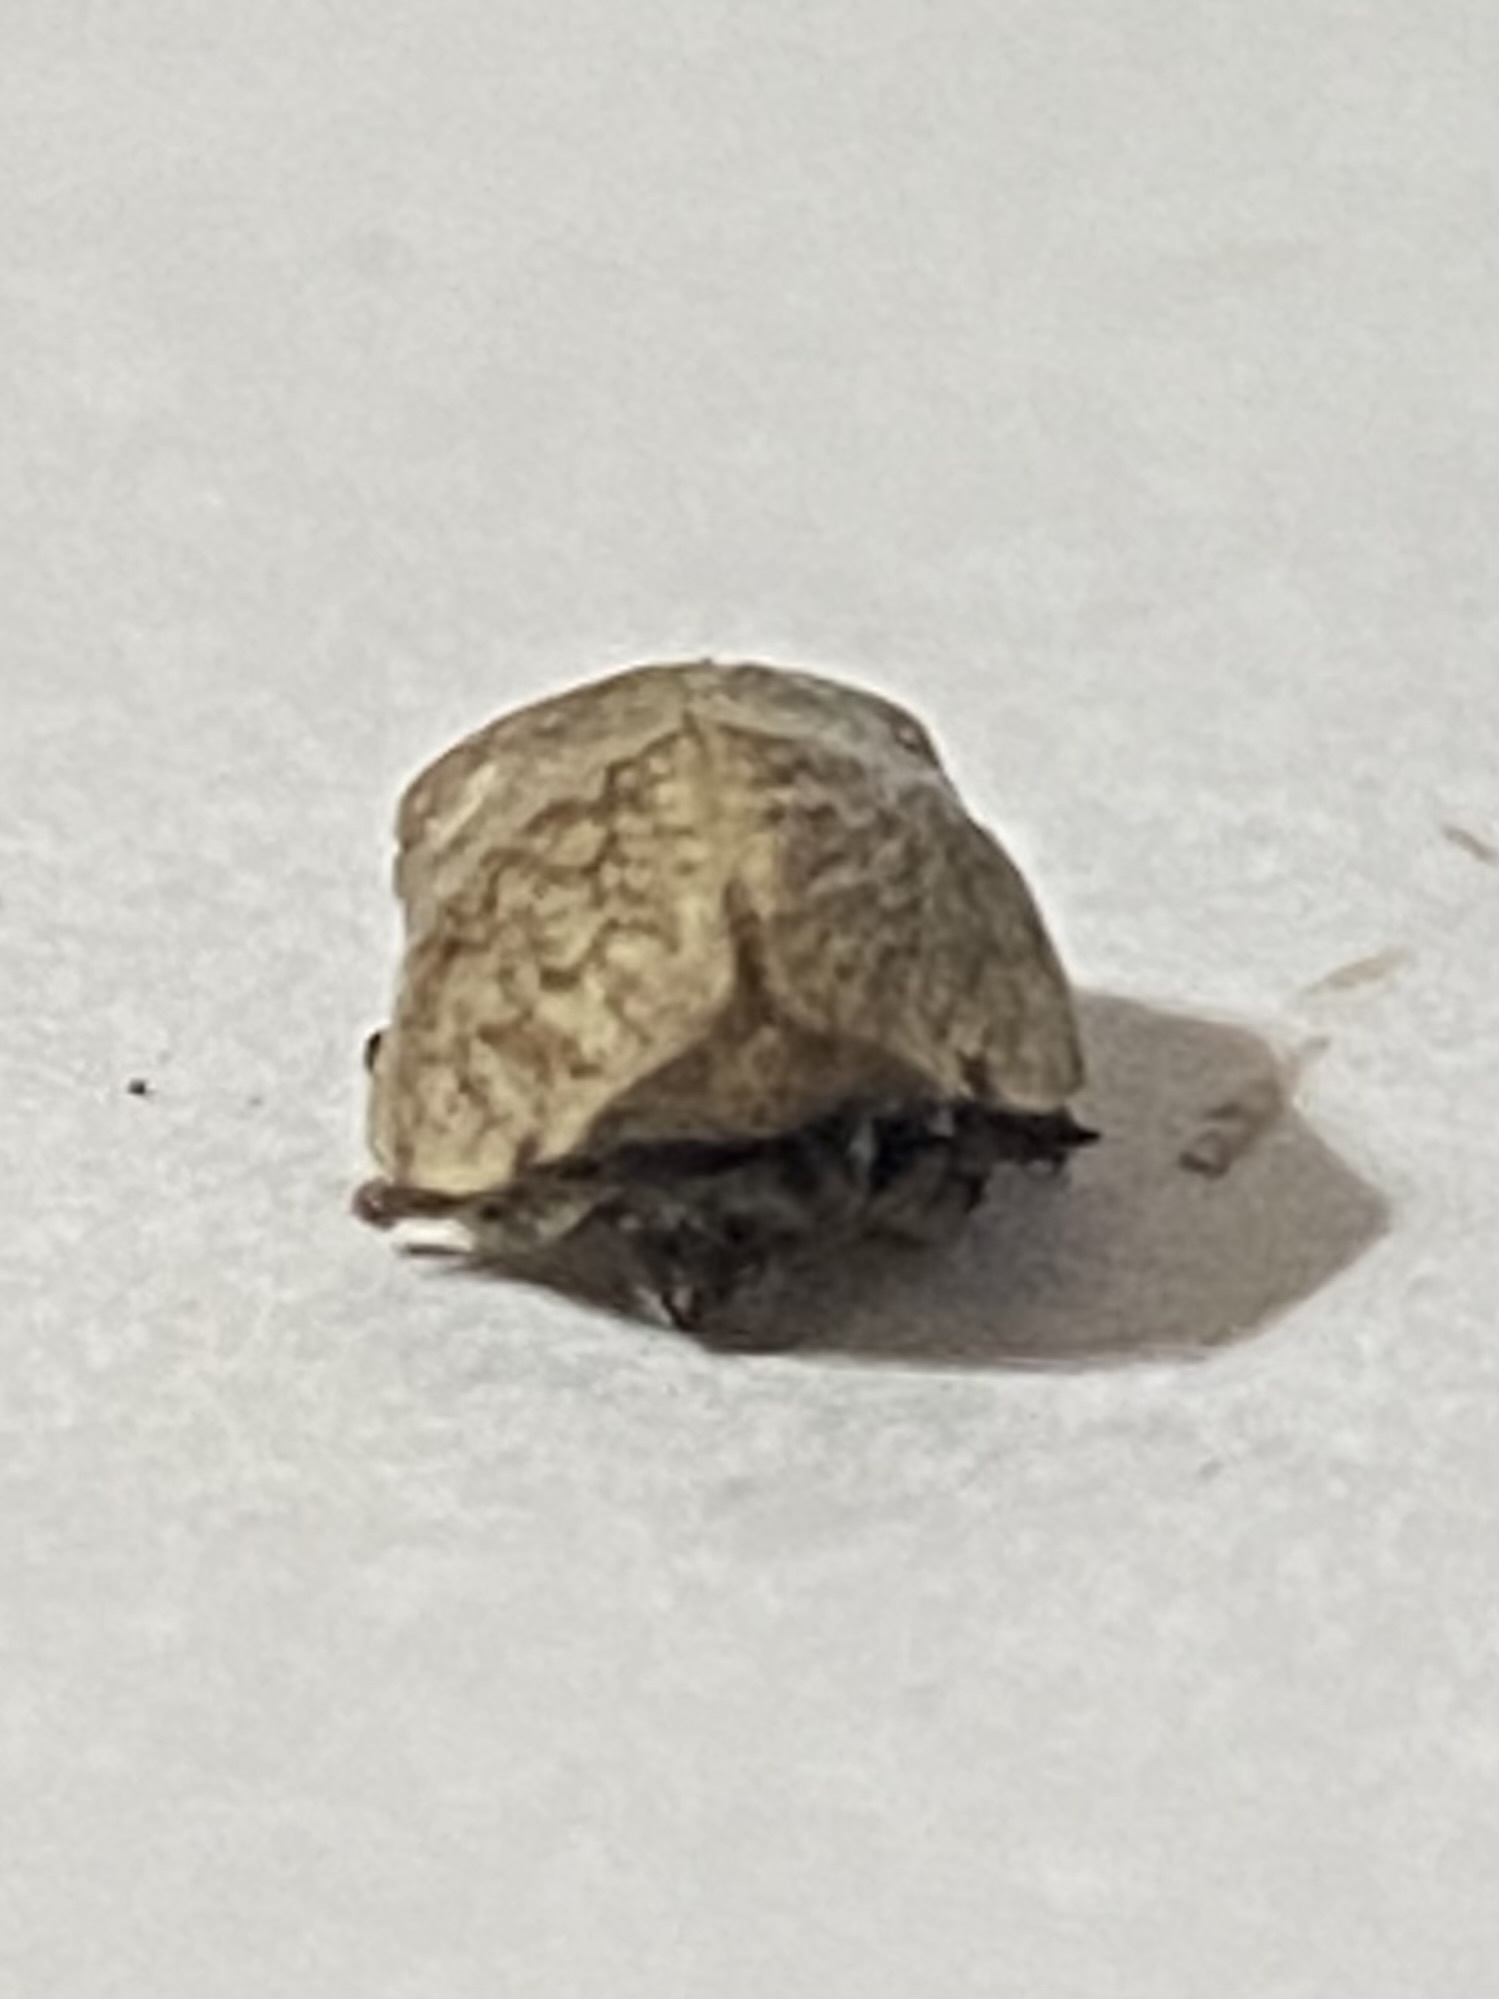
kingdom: Animalia
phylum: Arthropoda
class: Insecta
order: Hemiptera
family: Aphrophoridae
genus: Lepyronia
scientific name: Lepyronia gibbosa
